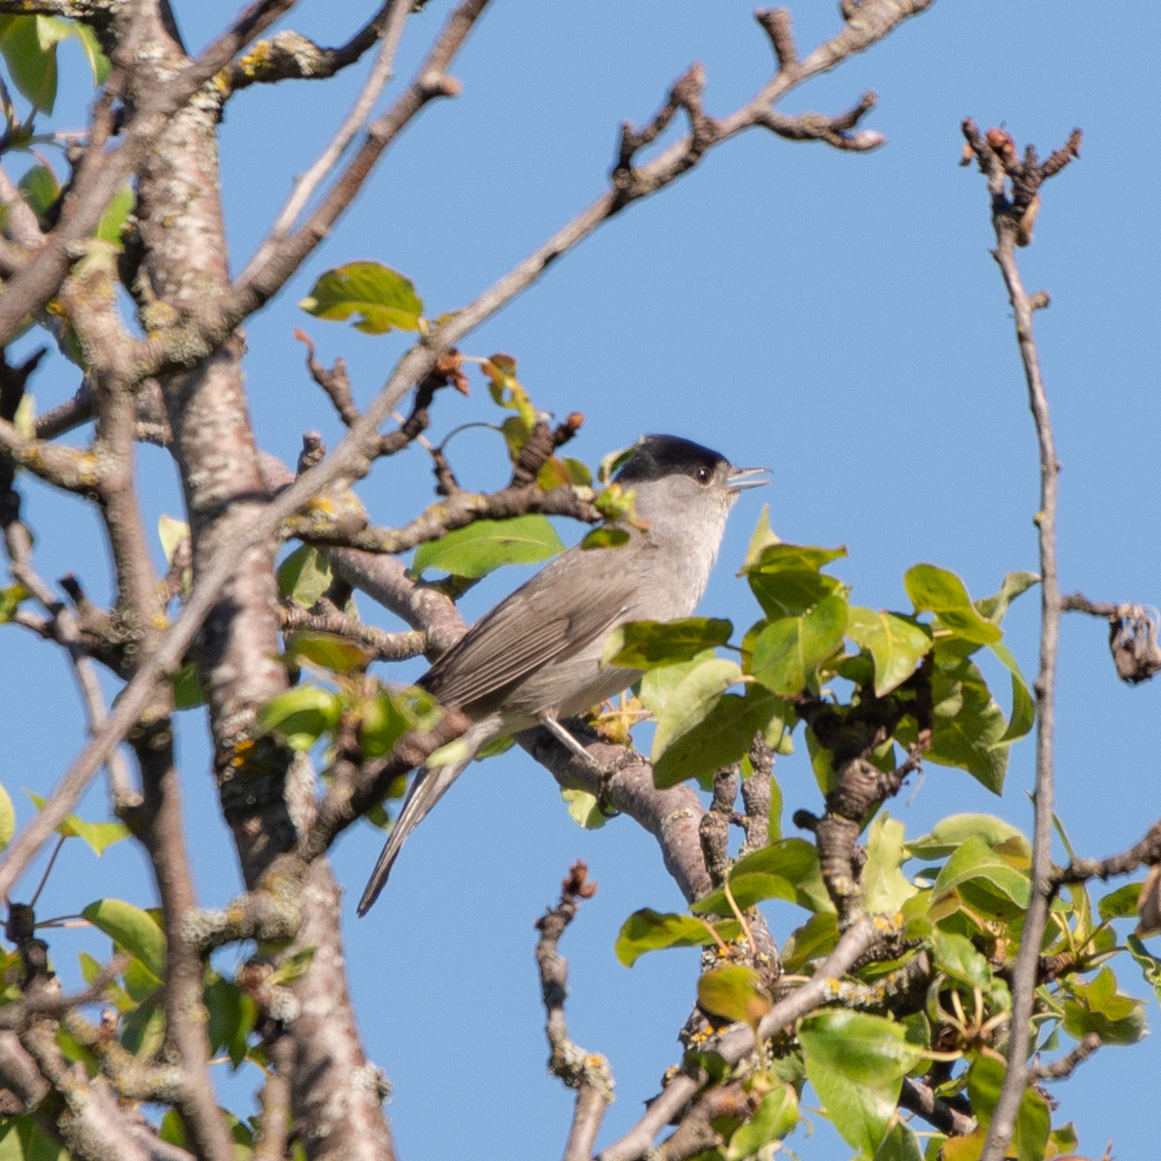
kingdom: Animalia
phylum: Chordata
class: Aves
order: Passeriformes
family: Sylviidae
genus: Sylvia
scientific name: Sylvia atricapilla
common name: Eurasian blackcap
